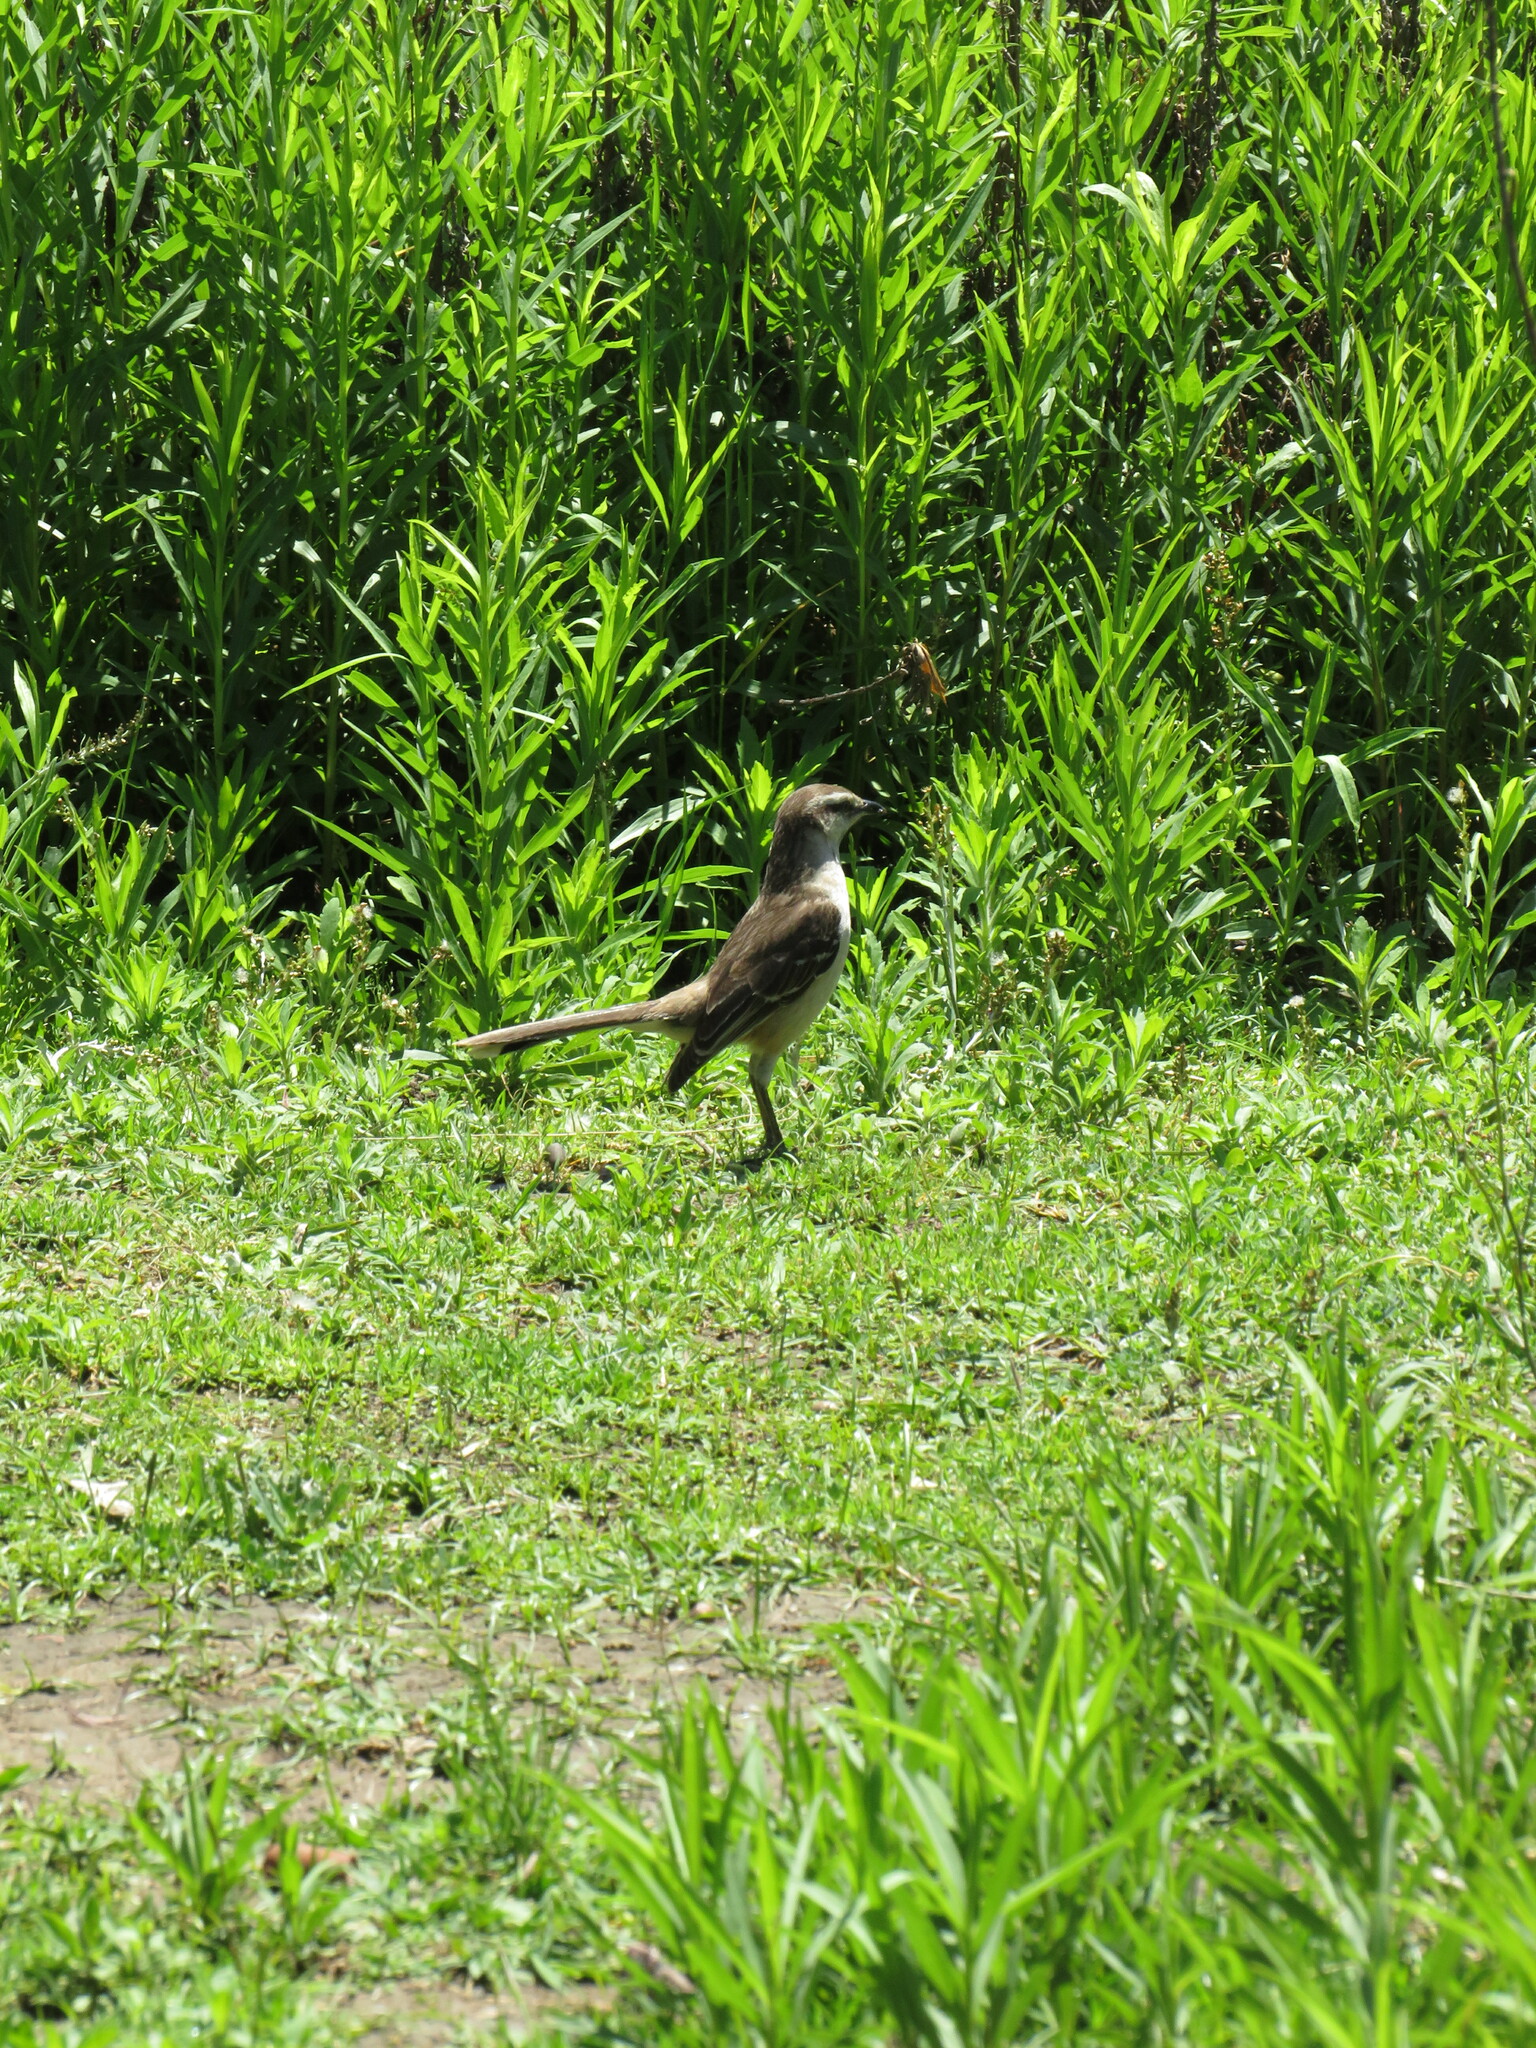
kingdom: Animalia
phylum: Chordata
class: Aves
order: Passeriformes
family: Mimidae
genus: Mimus
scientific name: Mimus saturninus
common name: Chalk-browed mockingbird
